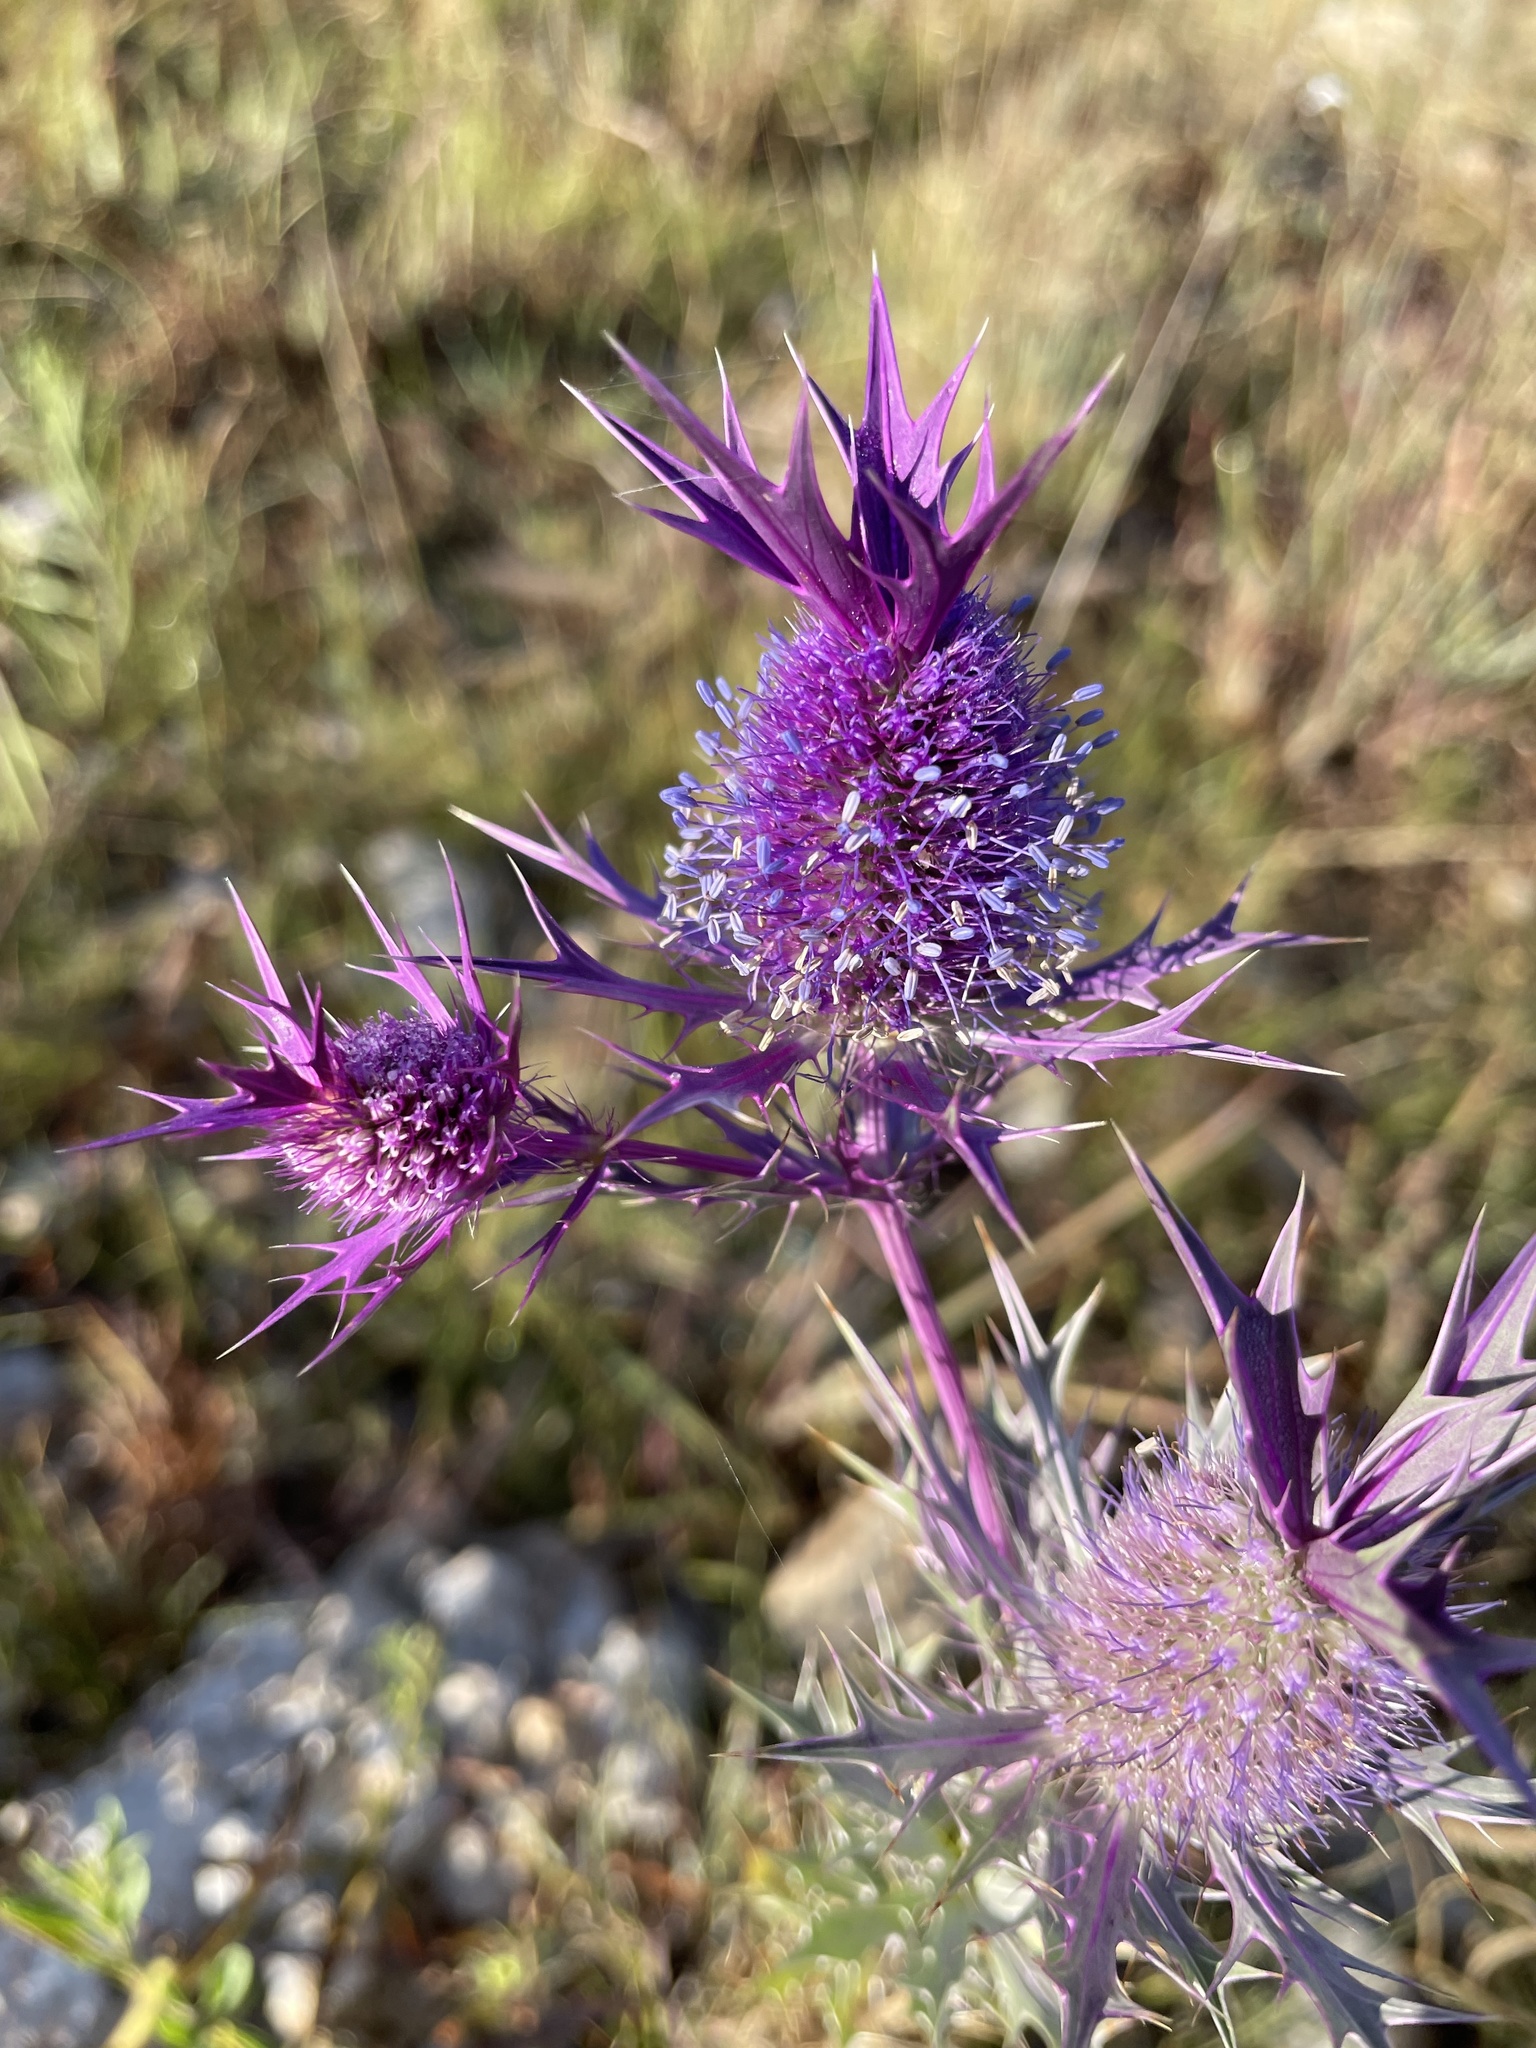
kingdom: Plantae
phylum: Tracheophyta
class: Magnoliopsida
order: Apiales
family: Apiaceae
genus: Eryngium
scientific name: Eryngium leavenworthii
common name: Leavenworth's eryngo
